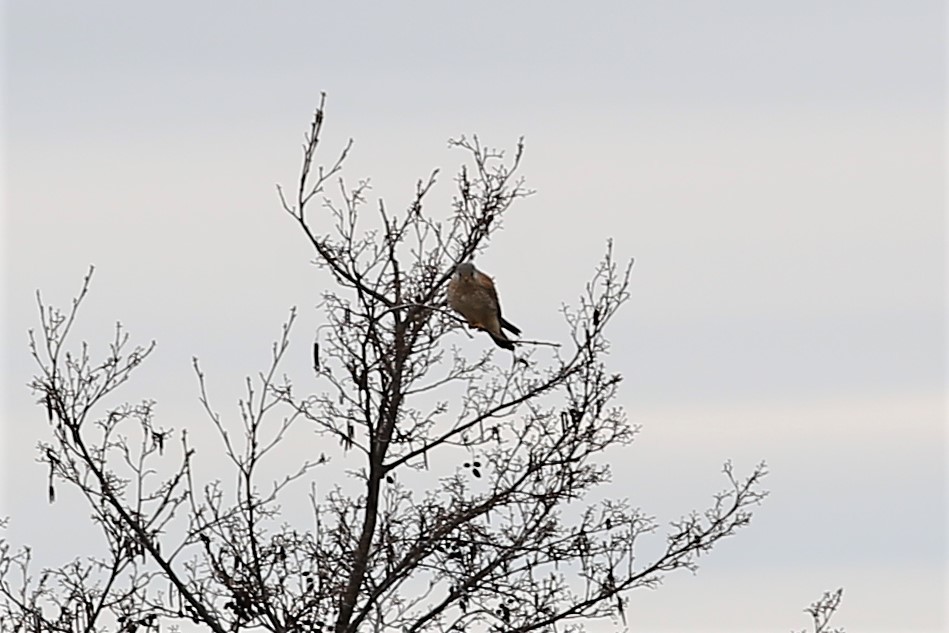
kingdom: Animalia
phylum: Chordata
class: Aves
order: Falconiformes
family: Falconidae
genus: Falco
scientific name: Falco tinnunculus
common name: Common kestrel
